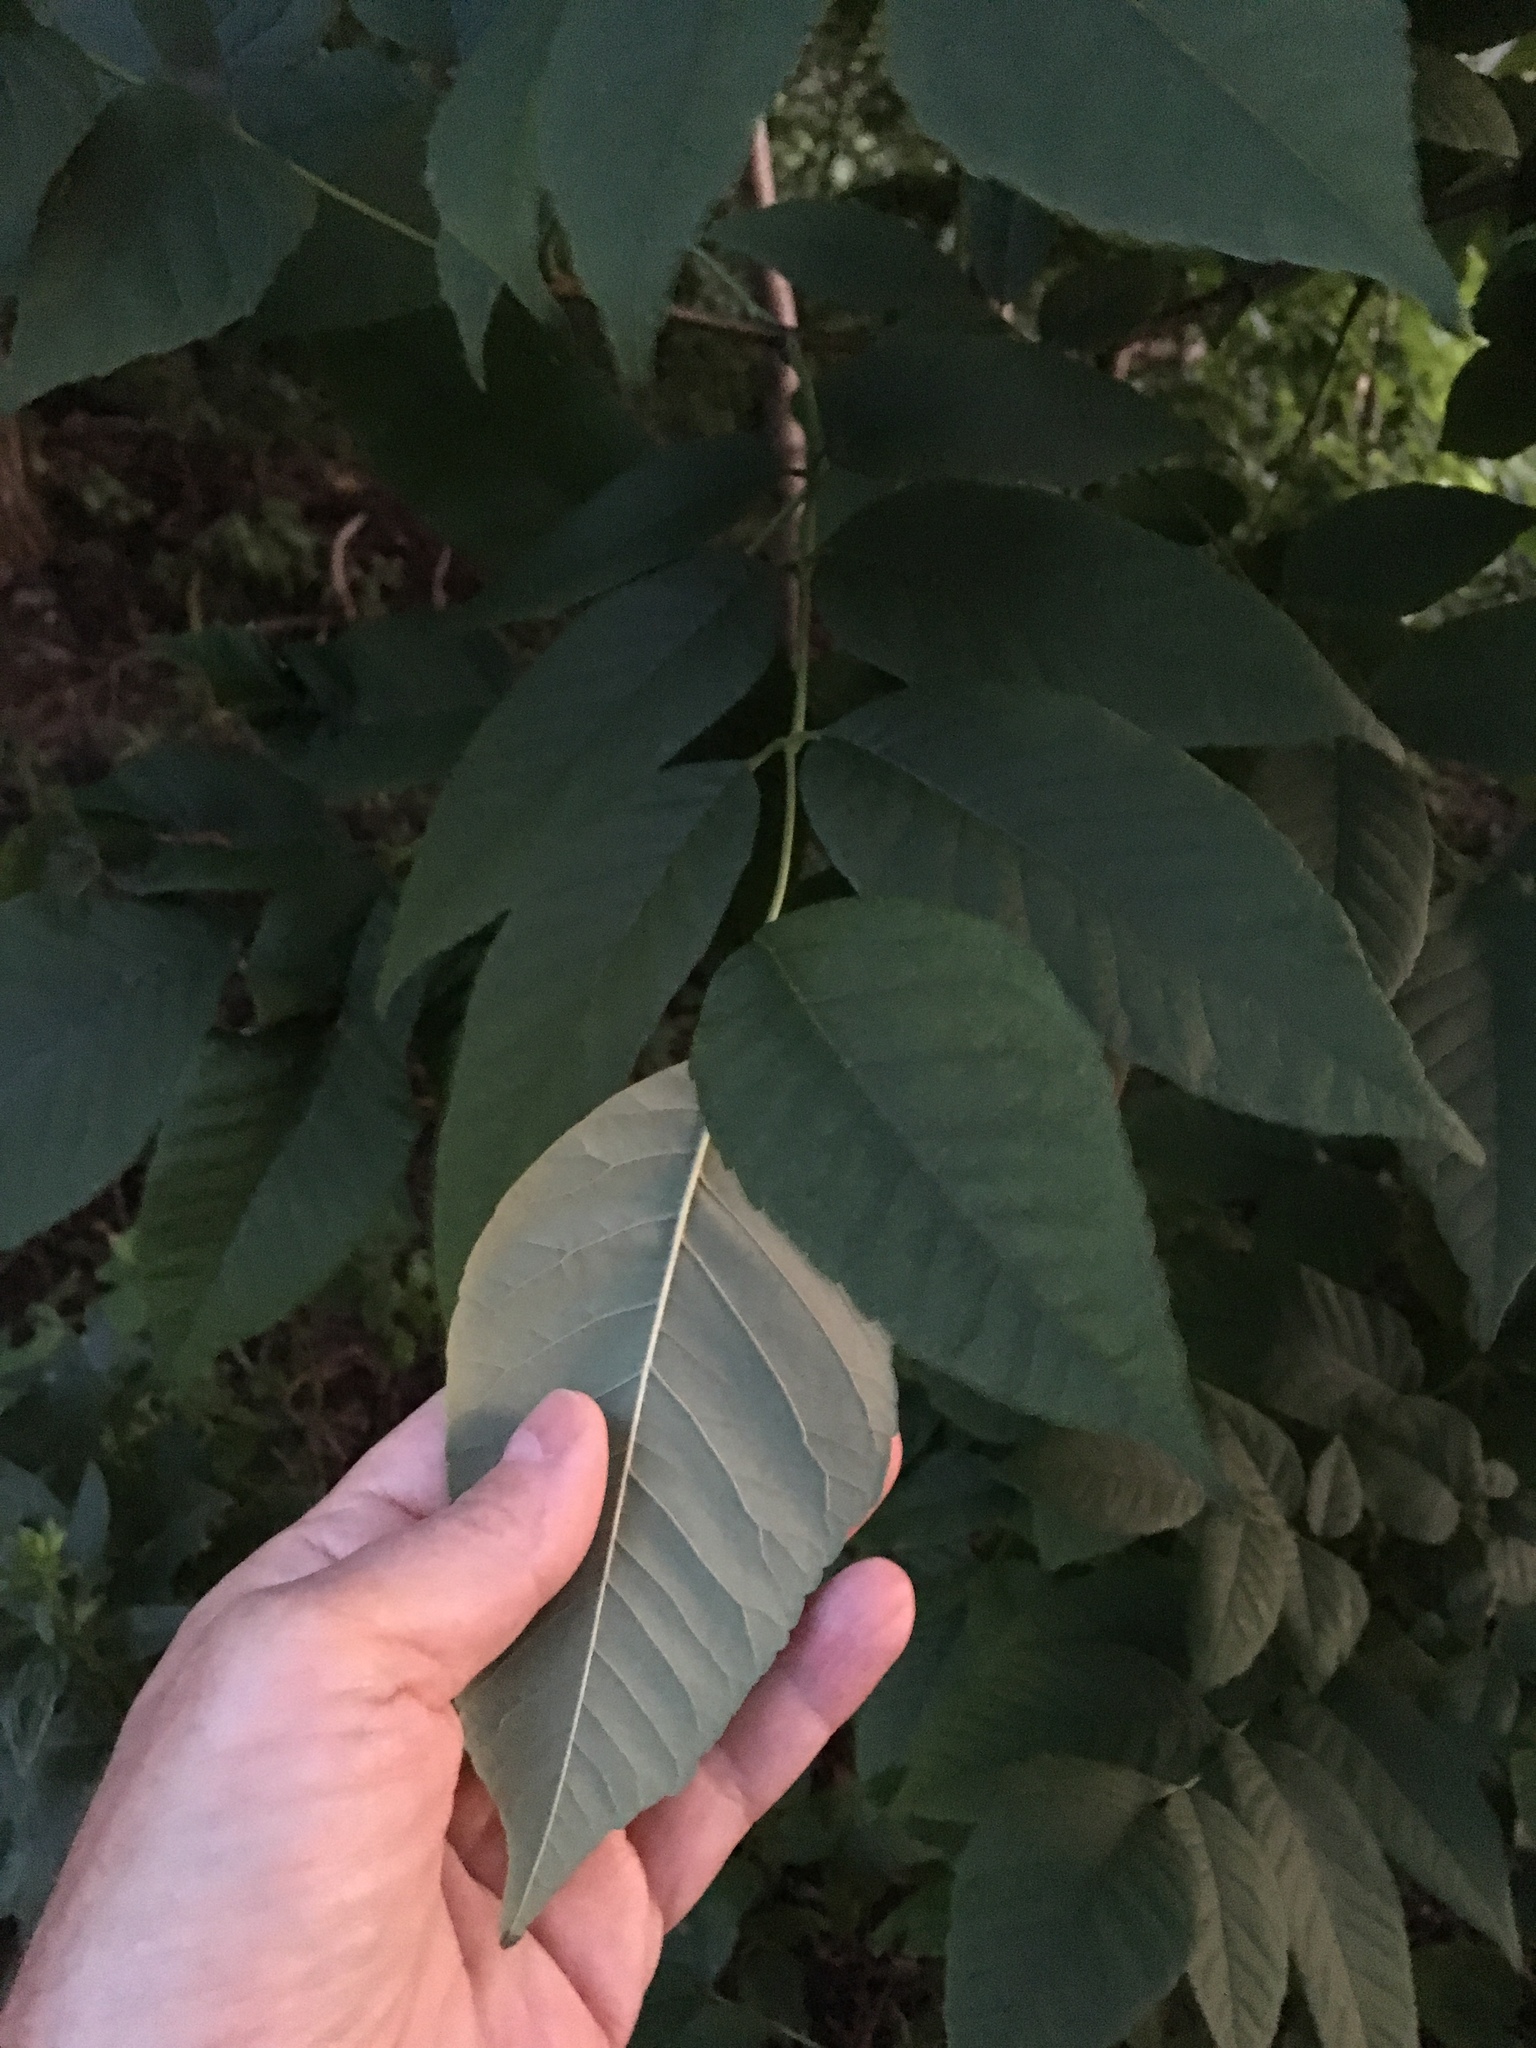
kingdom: Plantae
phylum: Tracheophyta
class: Magnoliopsida
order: Lamiales
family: Oleaceae
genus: Fraxinus
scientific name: Fraxinus americana
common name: White ash
